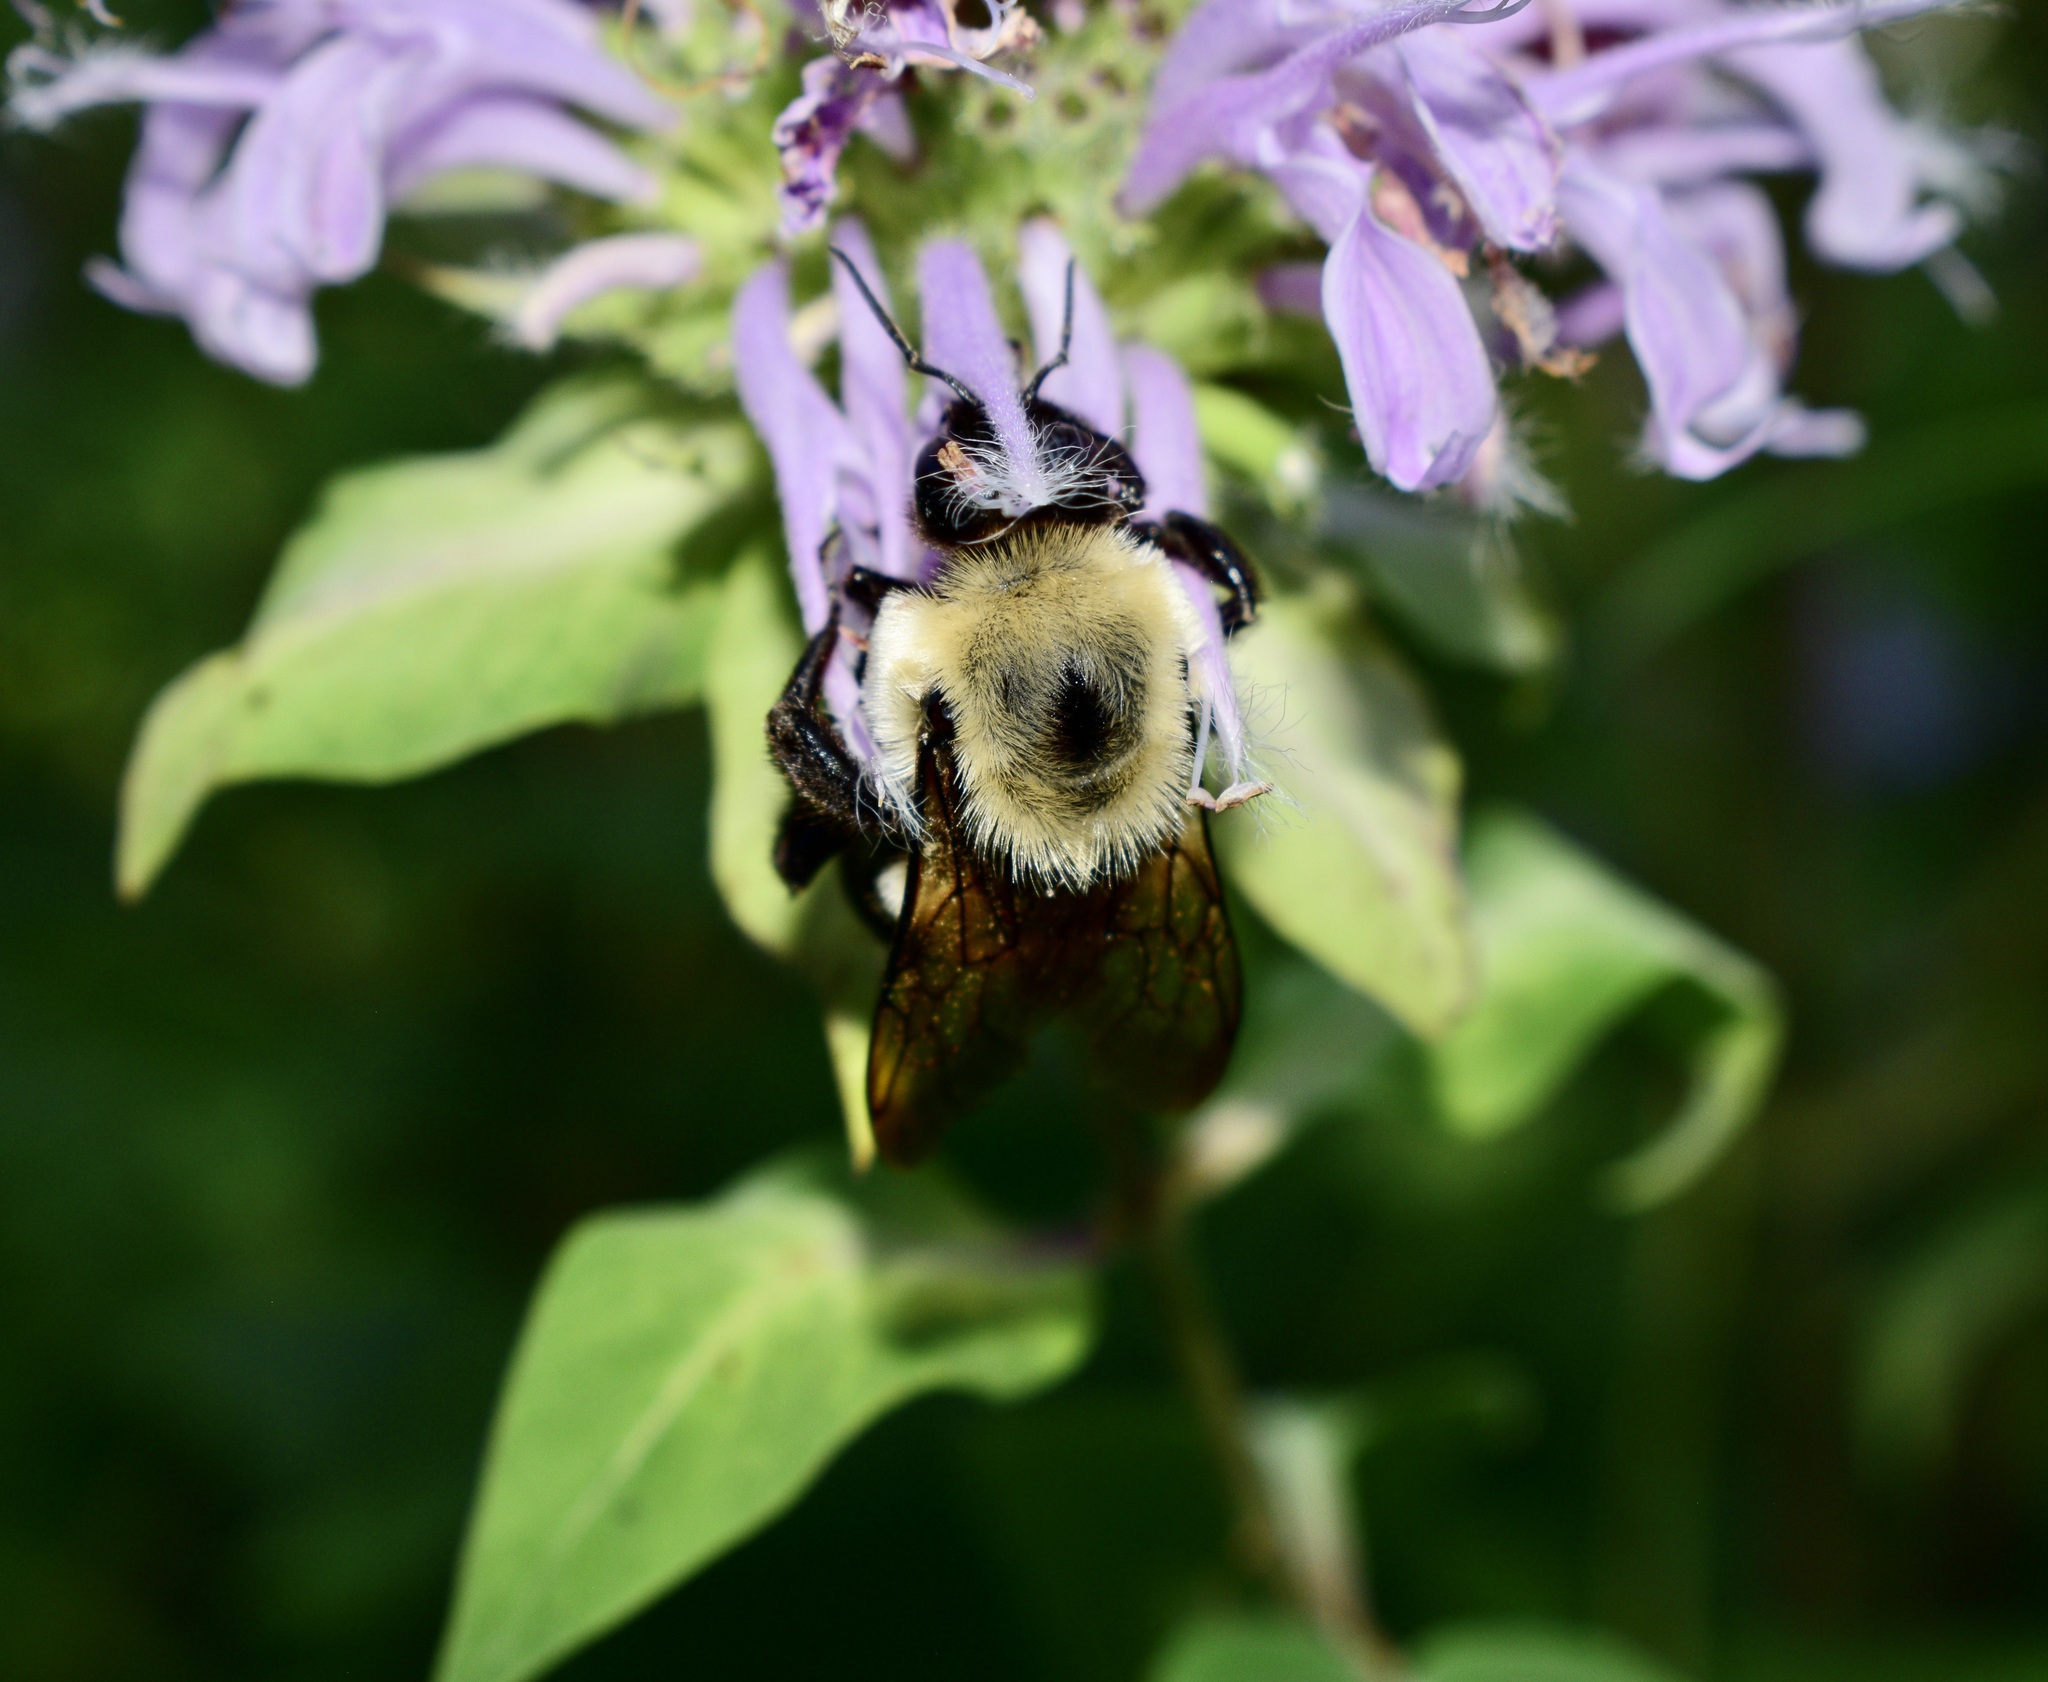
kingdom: Animalia
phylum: Arthropoda
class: Insecta
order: Hymenoptera
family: Apidae
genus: Bombus
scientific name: Bombus griseocollis
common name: Brown-belted bumble bee
